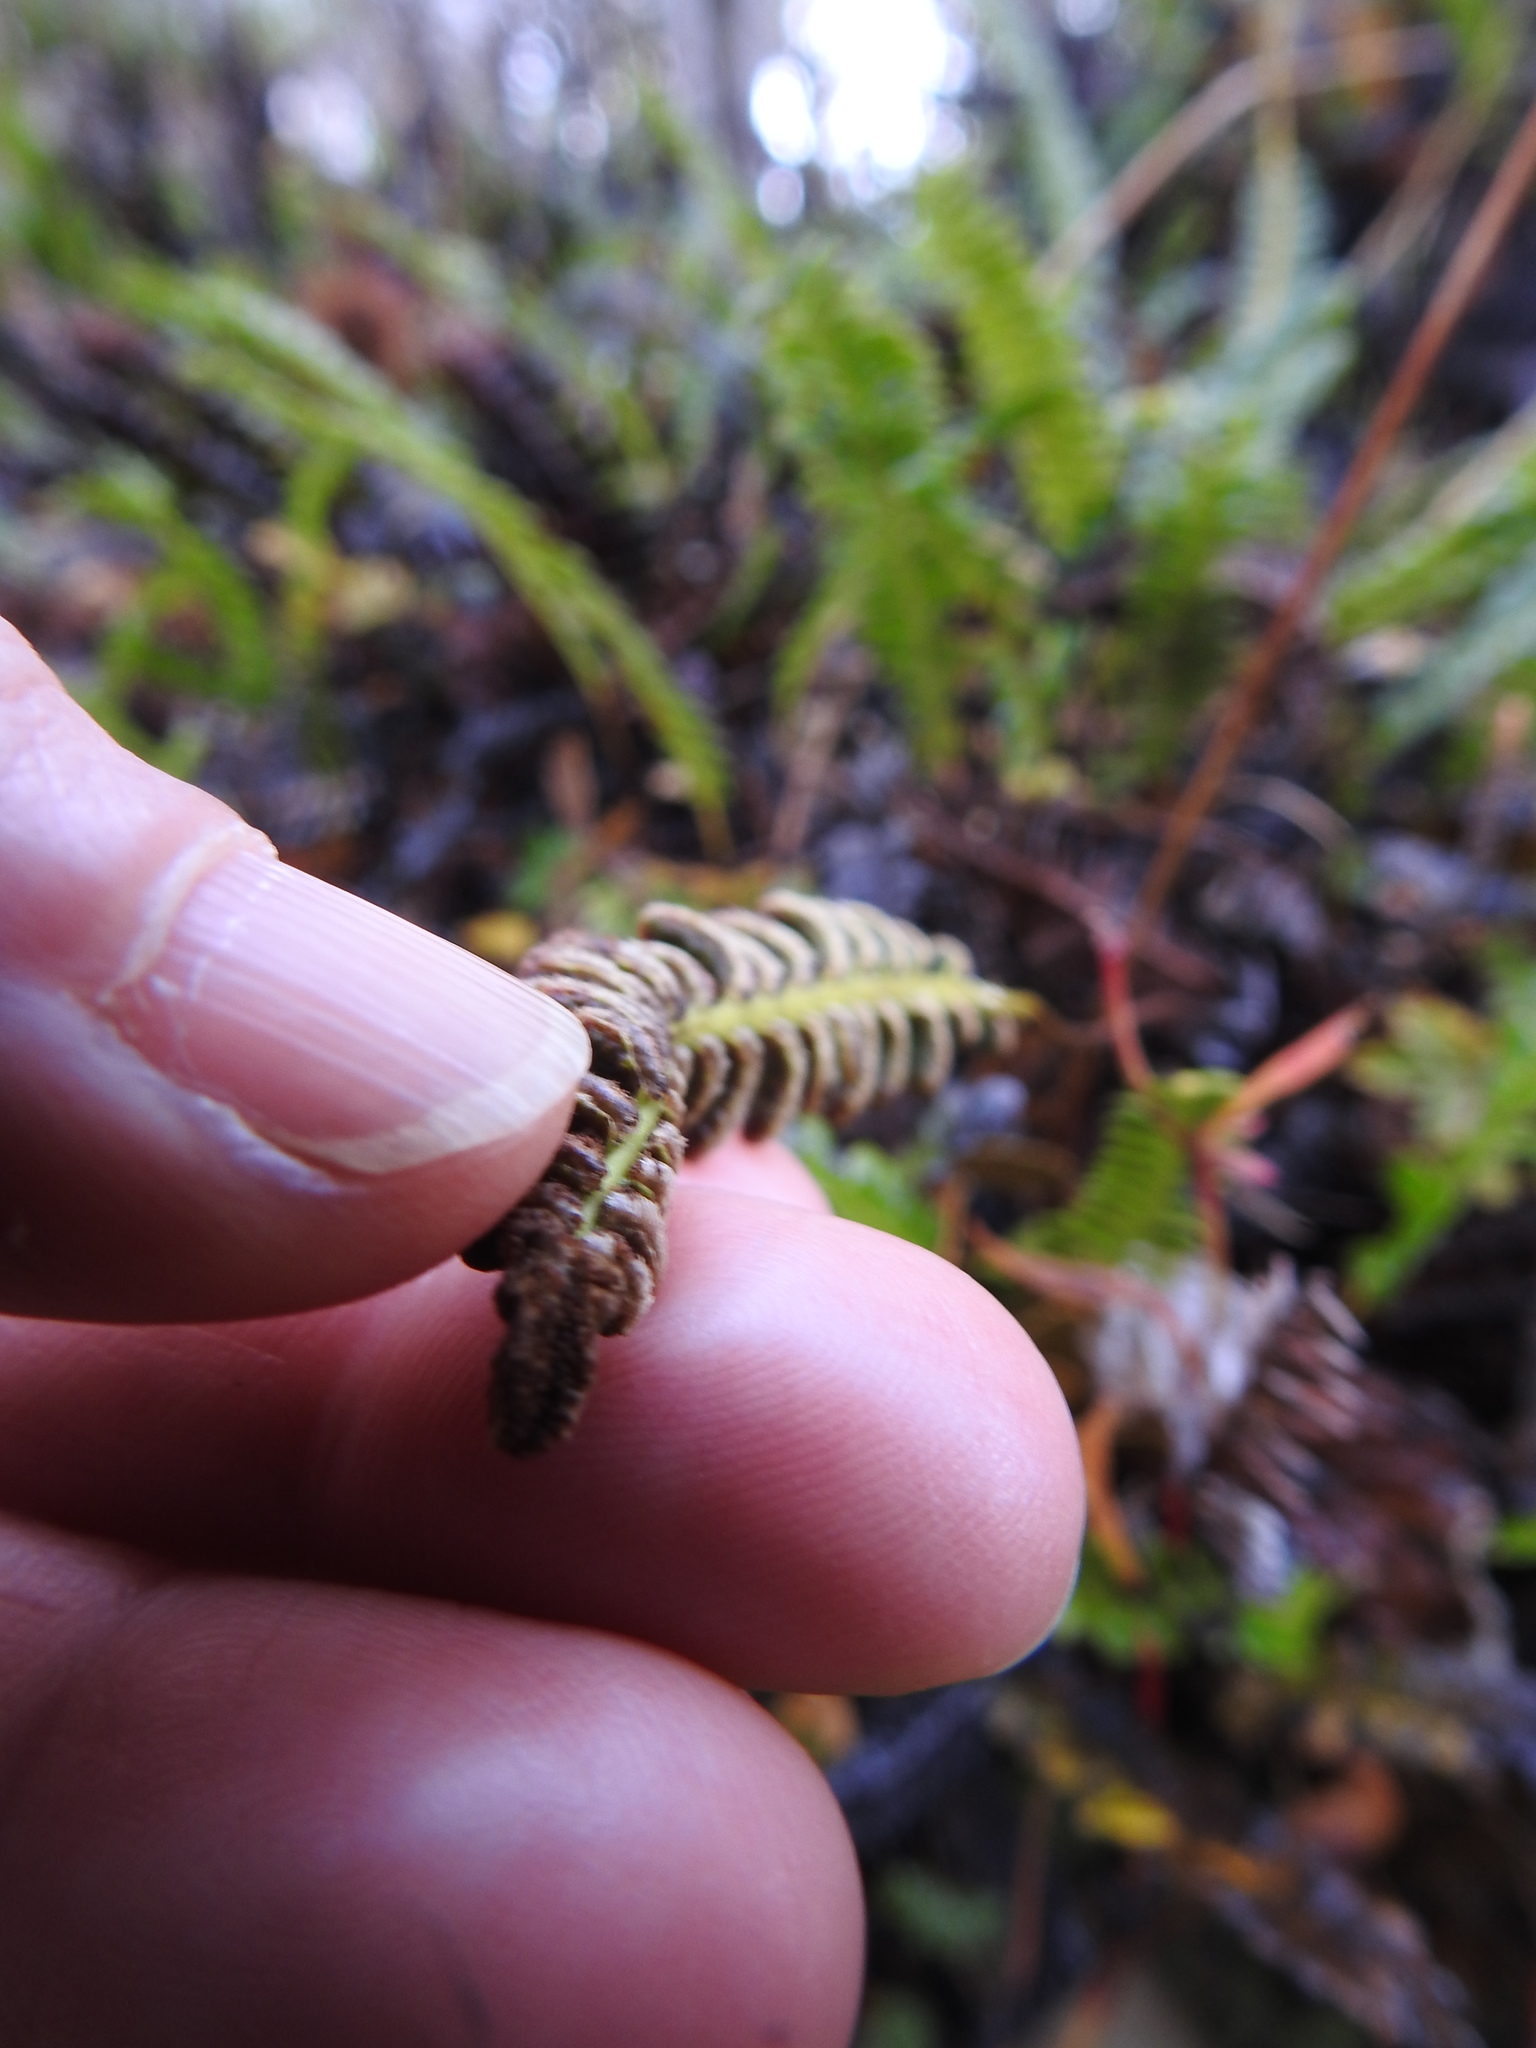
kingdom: Plantae
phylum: Tracheophyta
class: Polypodiopsida
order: Polypodiales
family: Blechnaceae
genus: Austroblechnum
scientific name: Austroblechnum penna-marina
